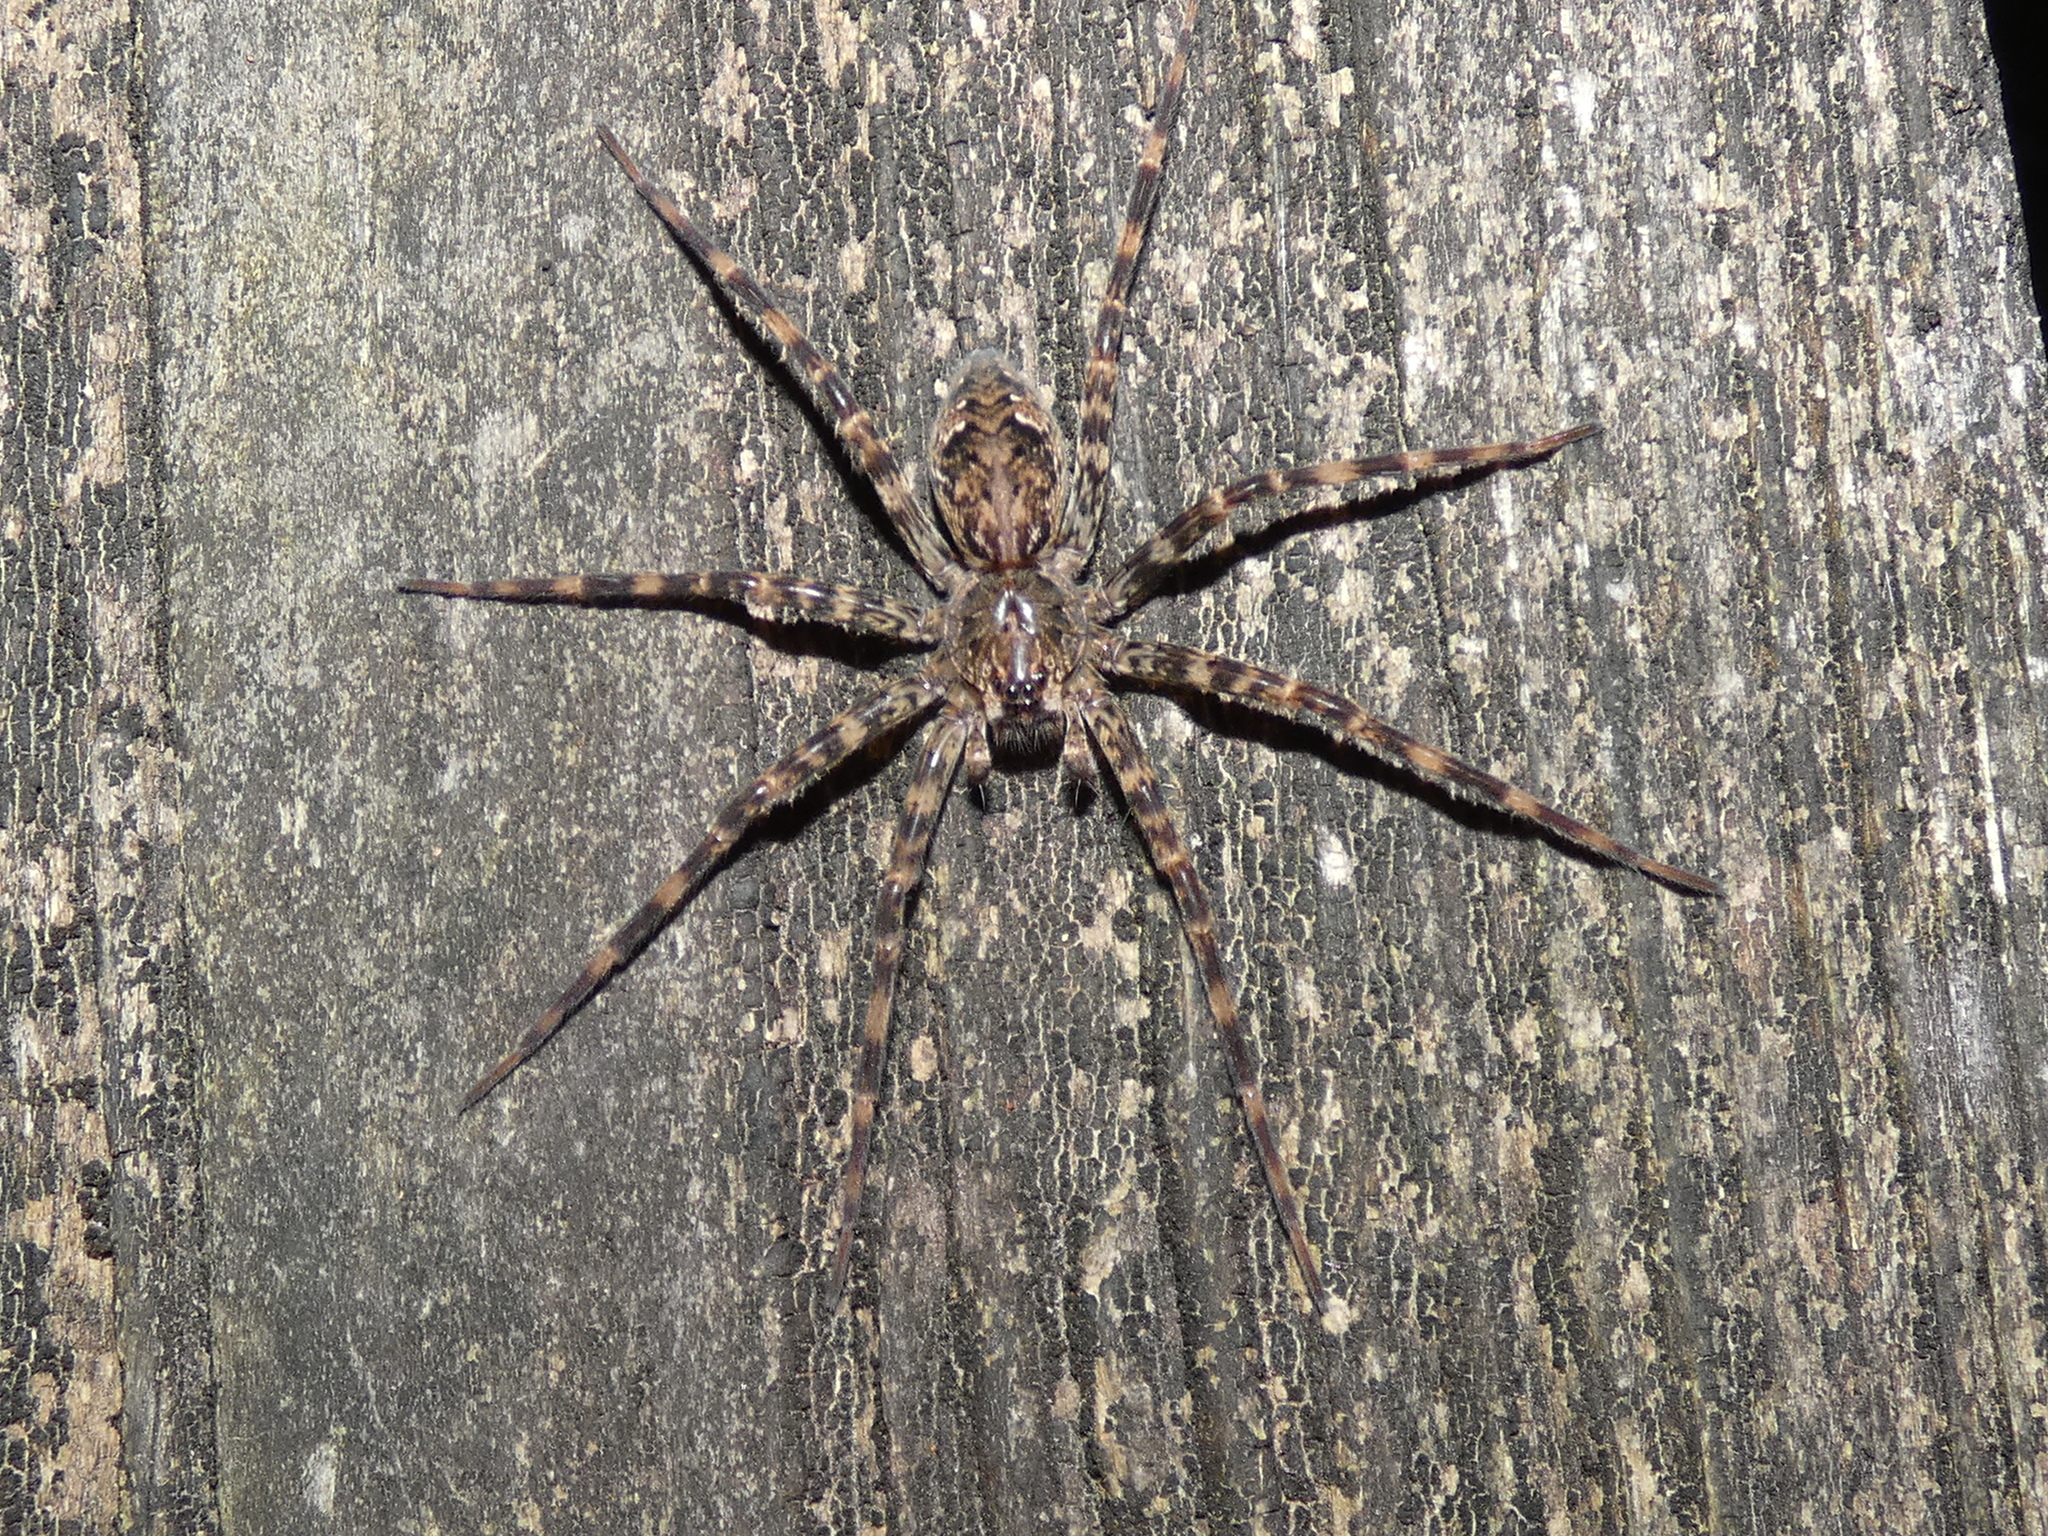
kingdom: Animalia
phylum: Arthropoda
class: Arachnida
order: Araneae
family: Pisauridae
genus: Dolomedes
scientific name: Dolomedes tenebrosus
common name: Dark fishing spider
